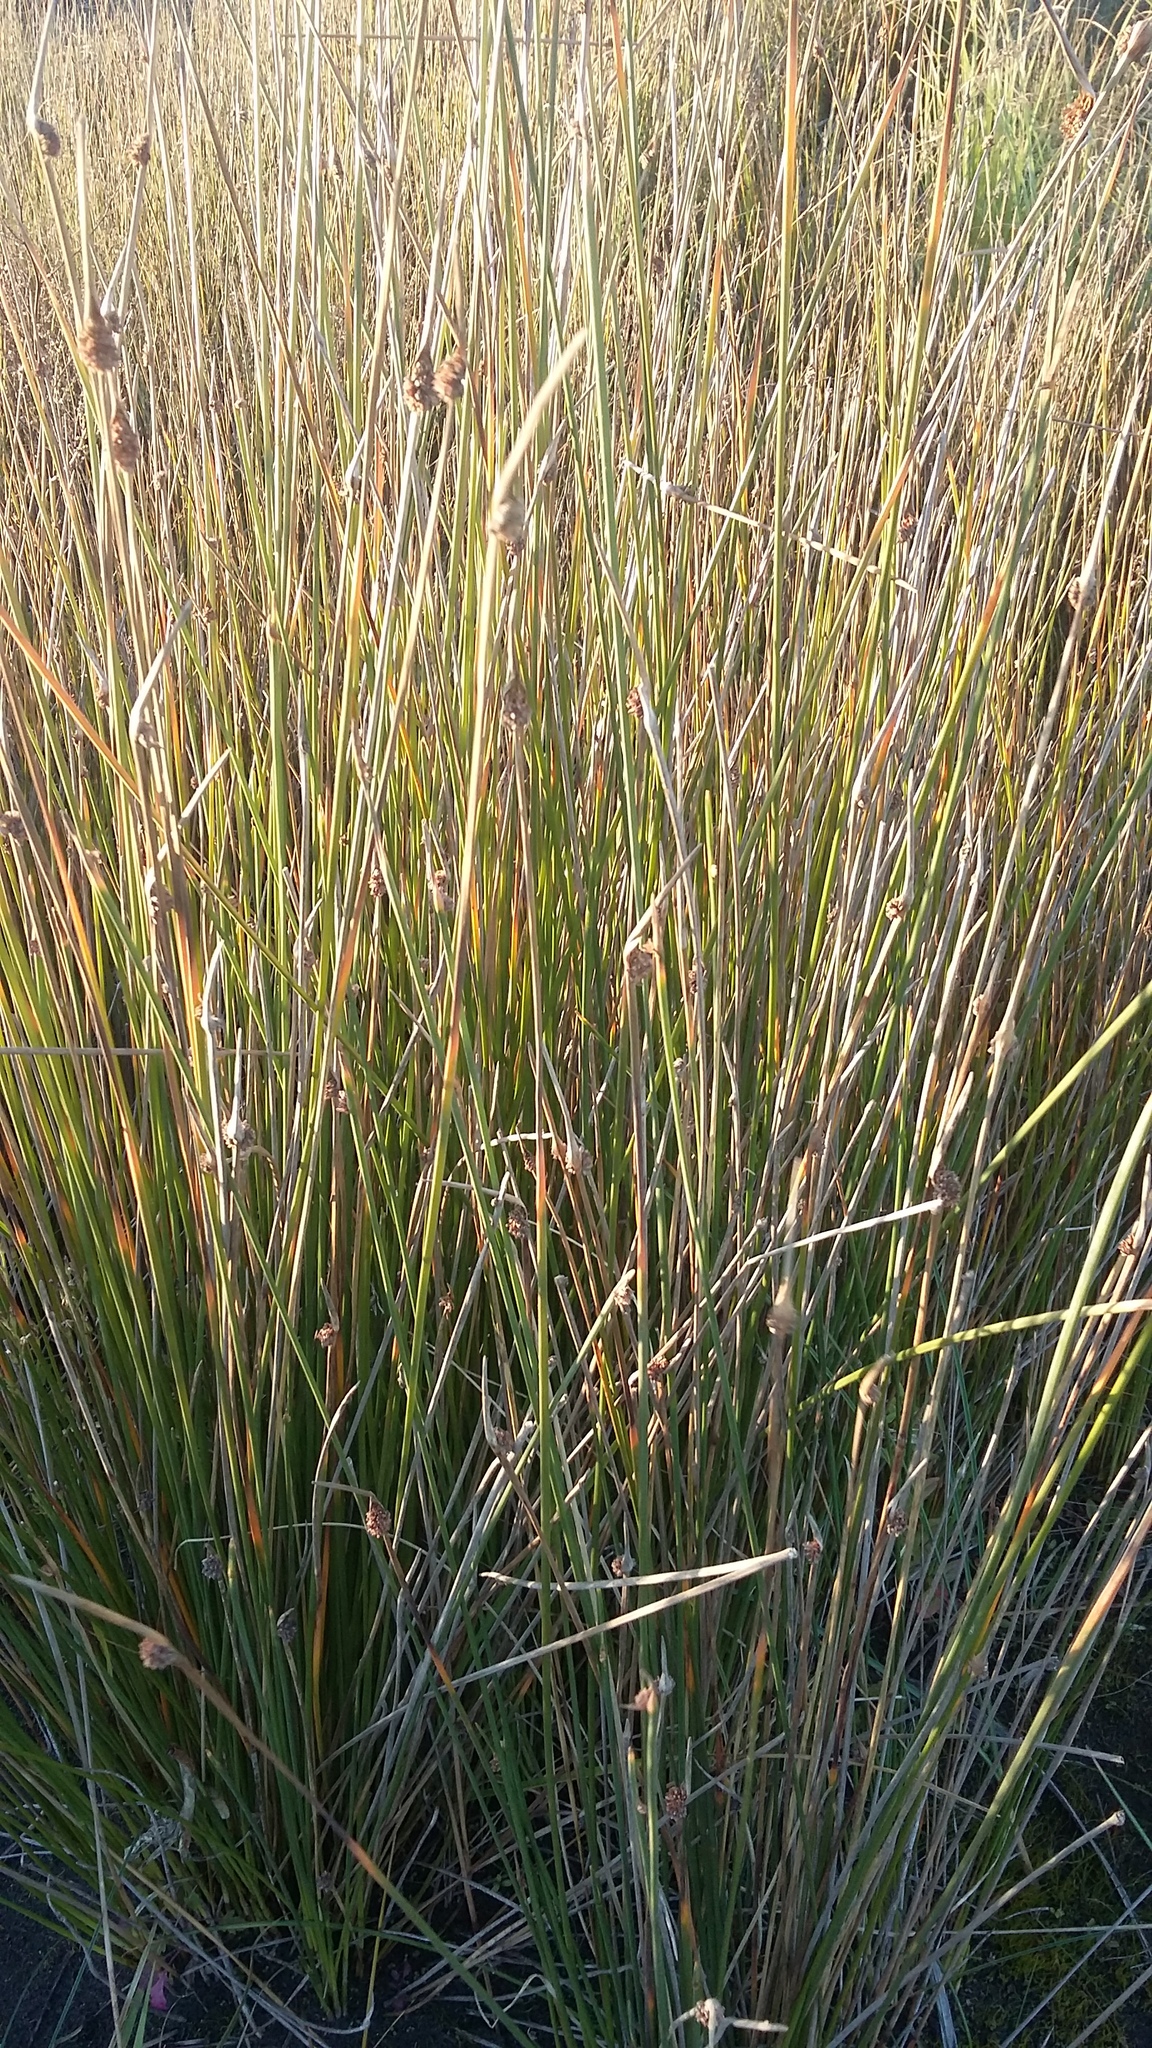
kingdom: Plantae
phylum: Tracheophyta
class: Liliopsida
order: Poales
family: Cyperaceae
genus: Ficinia
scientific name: Ficinia nodosa
